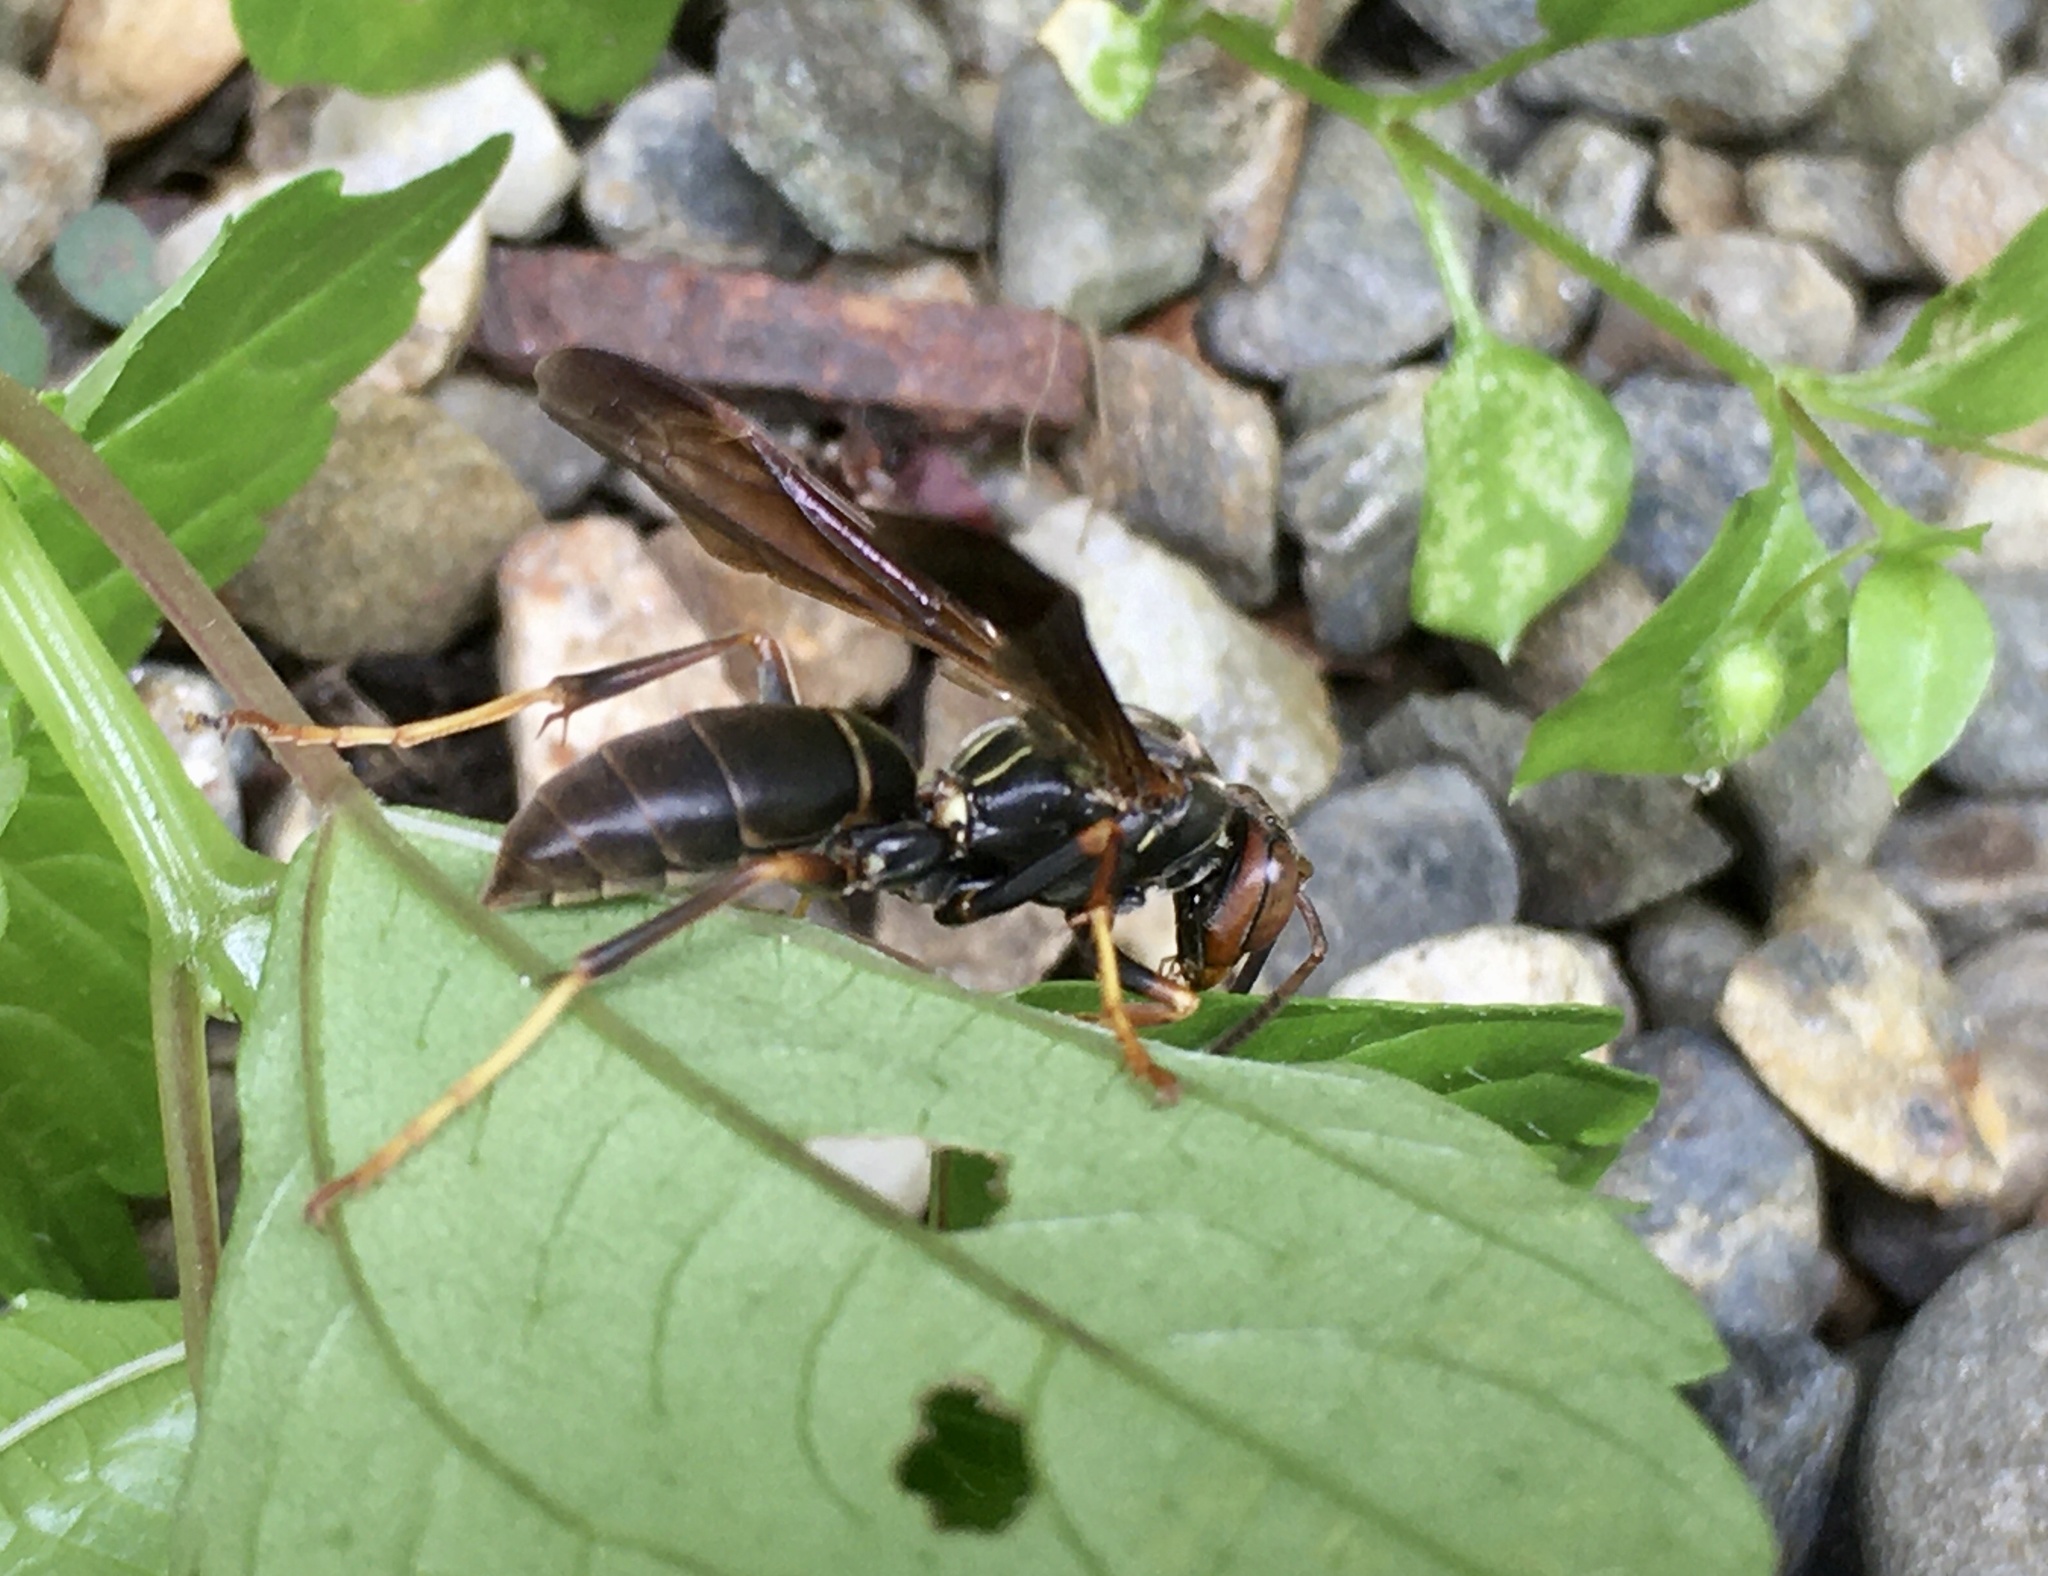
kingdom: Animalia
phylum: Arthropoda
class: Insecta
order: Hymenoptera
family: Eumenidae
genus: Polistes
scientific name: Polistes fuscatus
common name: Dark paper wasp
